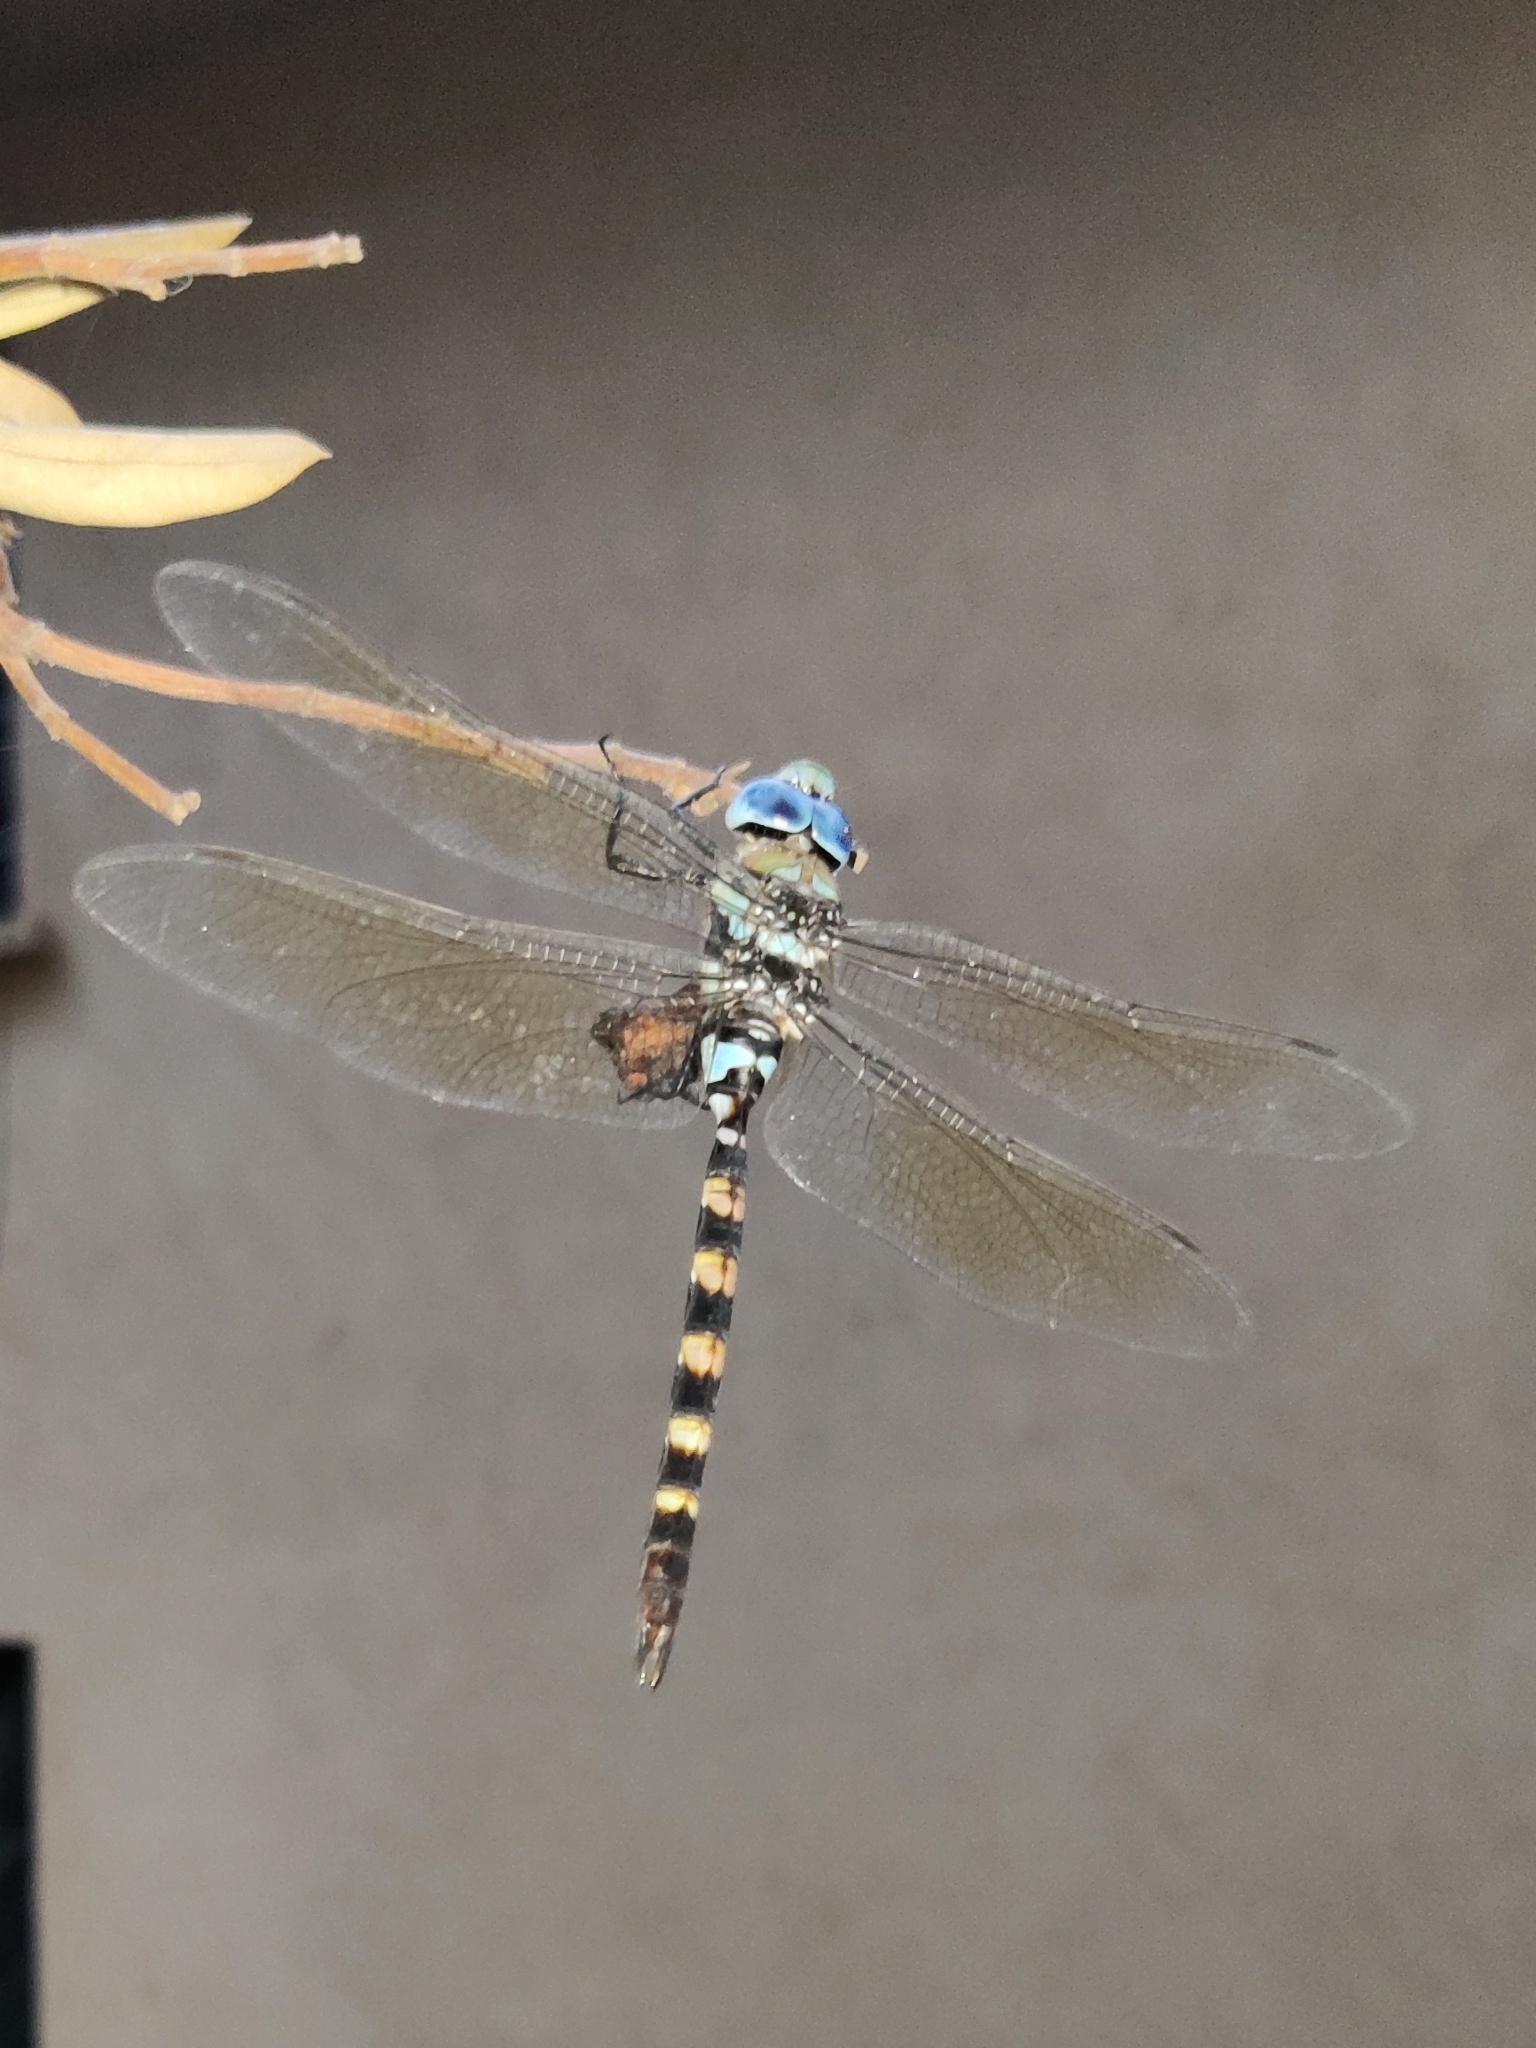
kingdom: Animalia
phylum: Arthropoda
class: Insecta
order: Odonata
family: Aeshnidae
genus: Anax
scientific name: Anax immaculifrons
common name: Magnificent emperor
